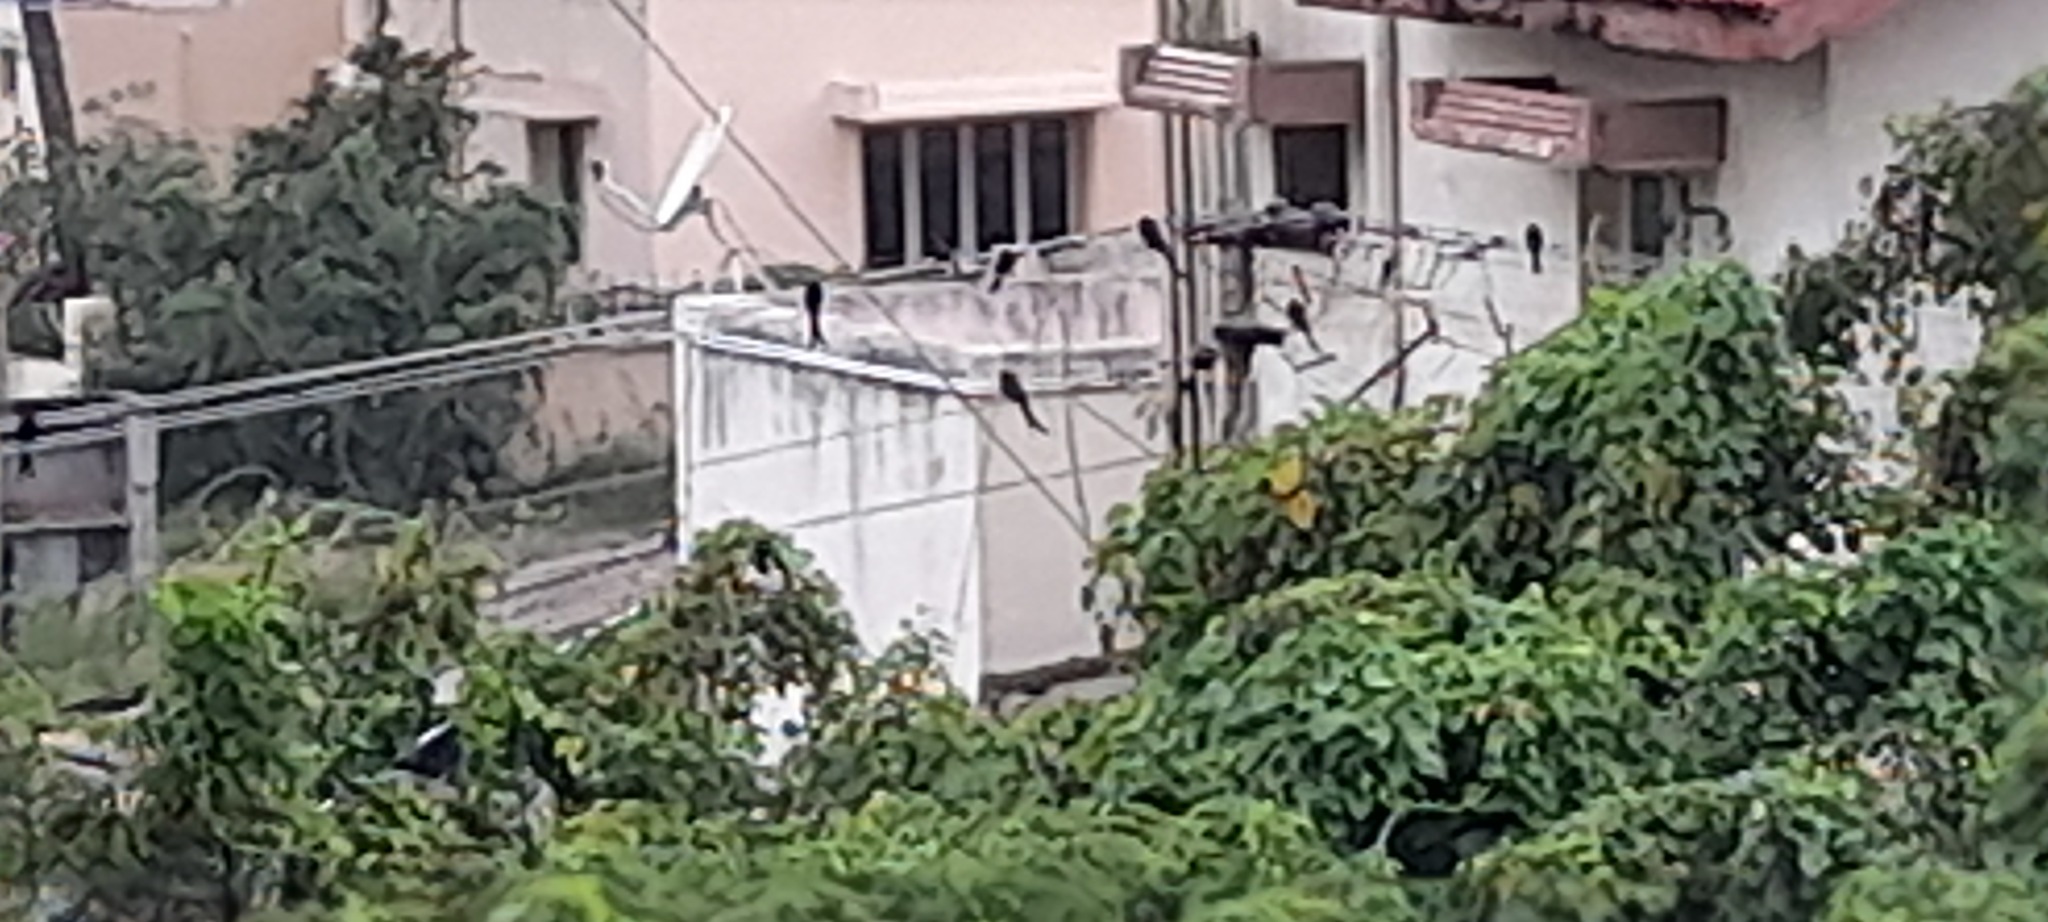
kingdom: Animalia
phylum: Chordata
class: Aves
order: Passeriformes
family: Dicruridae
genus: Dicrurus
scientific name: Dicrurus macrocercus
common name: Black drongo
